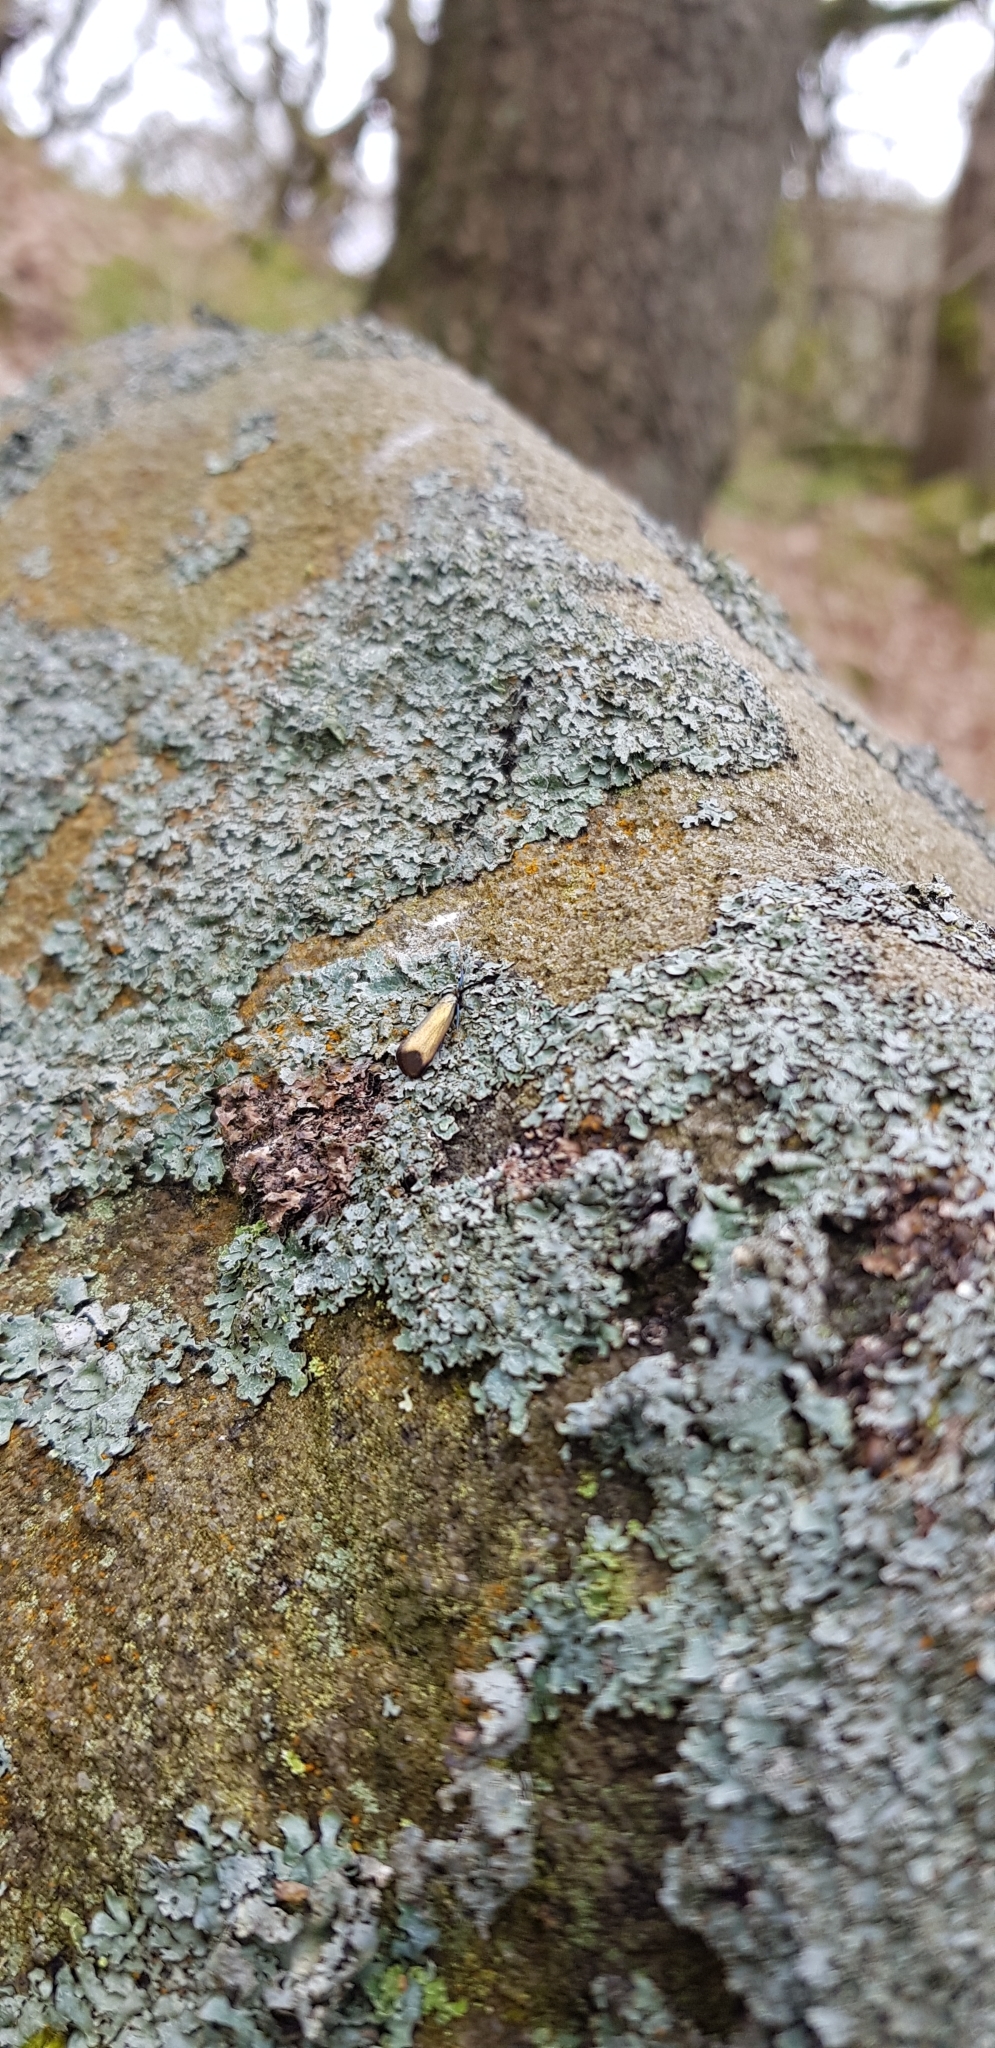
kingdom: Animalia
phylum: Arthropoda
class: Insecta
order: Lepidoptera
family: Adelidae
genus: Adela
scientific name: Adela viridella
